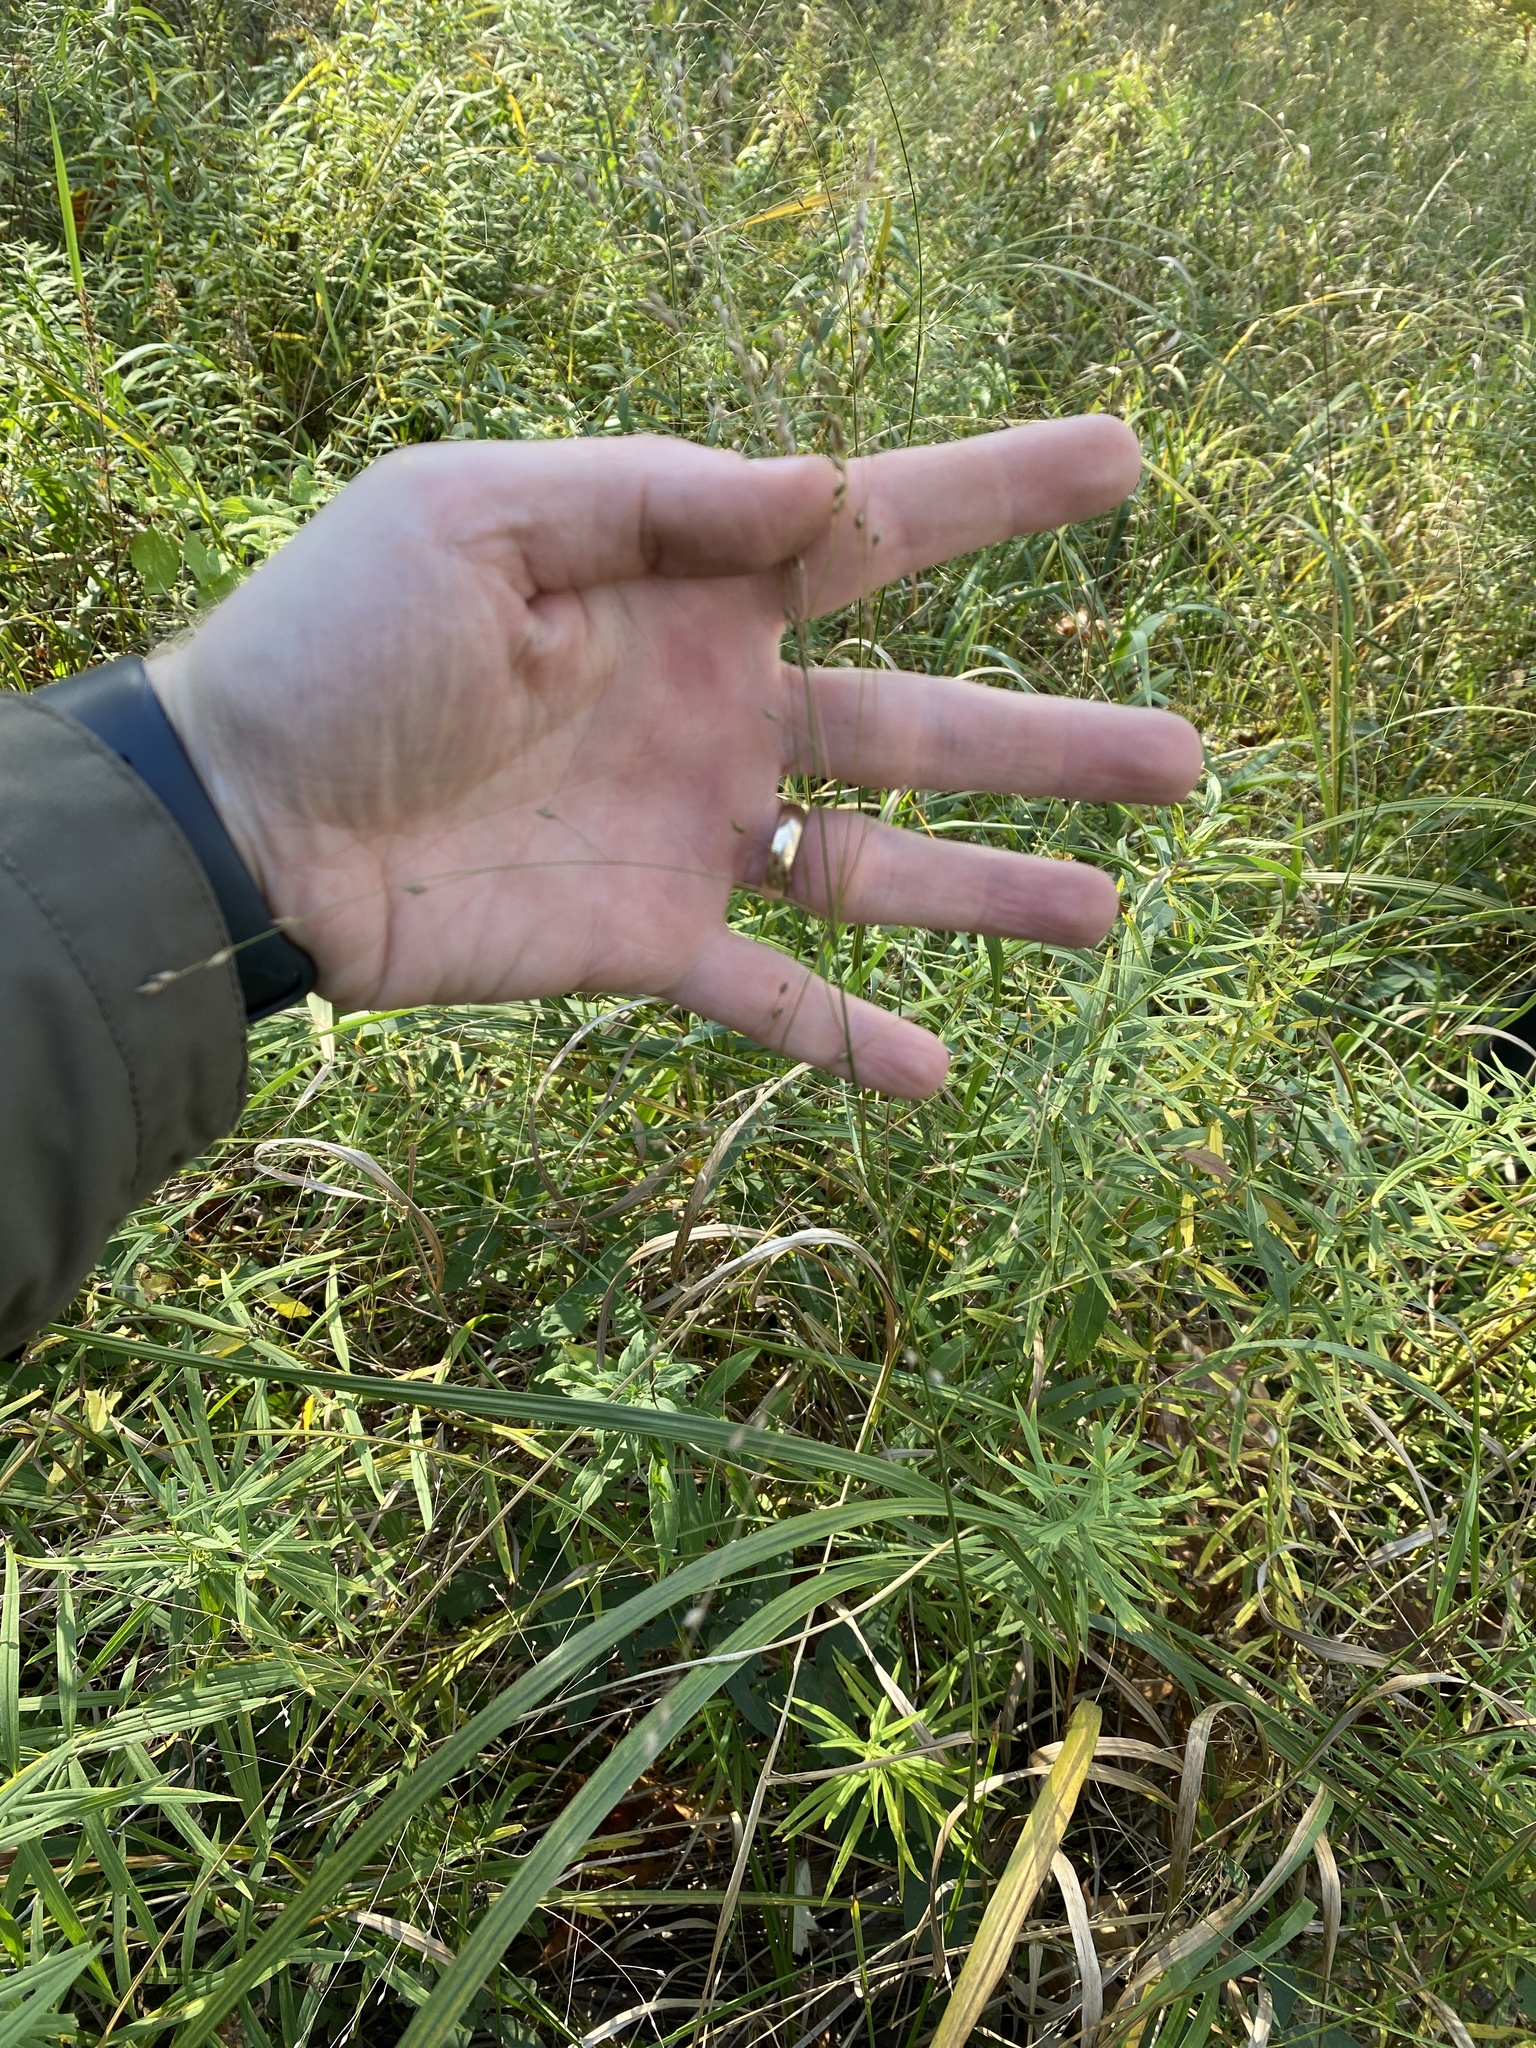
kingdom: Plantae
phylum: Tracheophyta
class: Liliopsida
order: Poales
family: Poaceae
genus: Panicum
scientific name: Panicum virgatum
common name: Switchgrass
